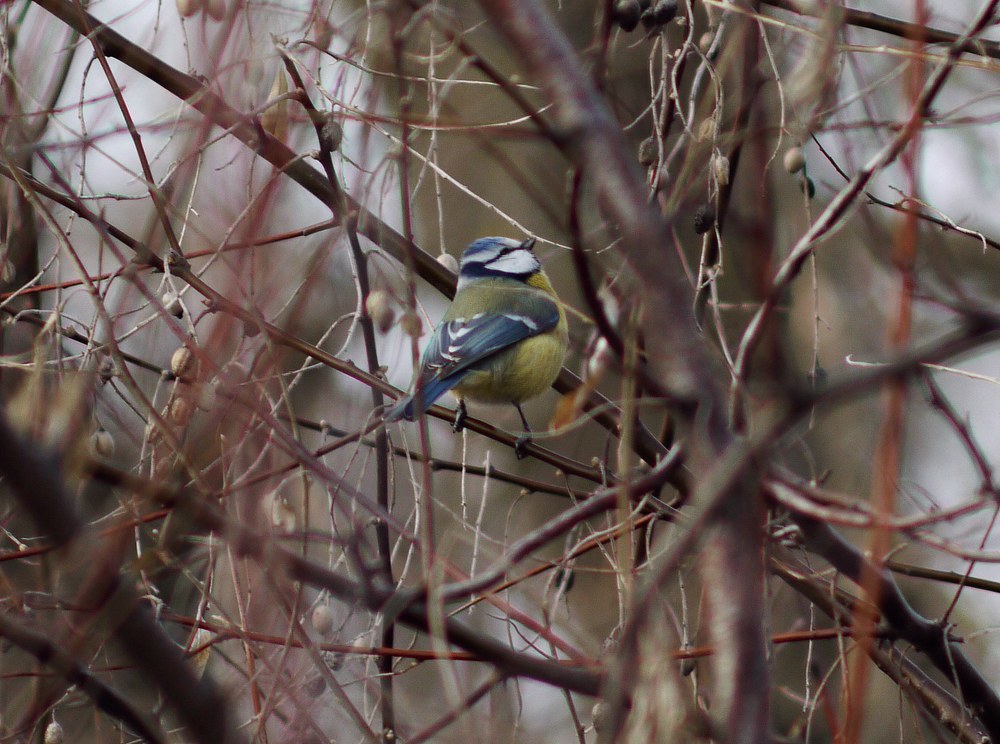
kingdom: Animalia
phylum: Chordata
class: Aves
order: Passeriformes
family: Paridae
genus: Cyanistes
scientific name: Cyanistes caeruleus
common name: Eurasian blue tit
